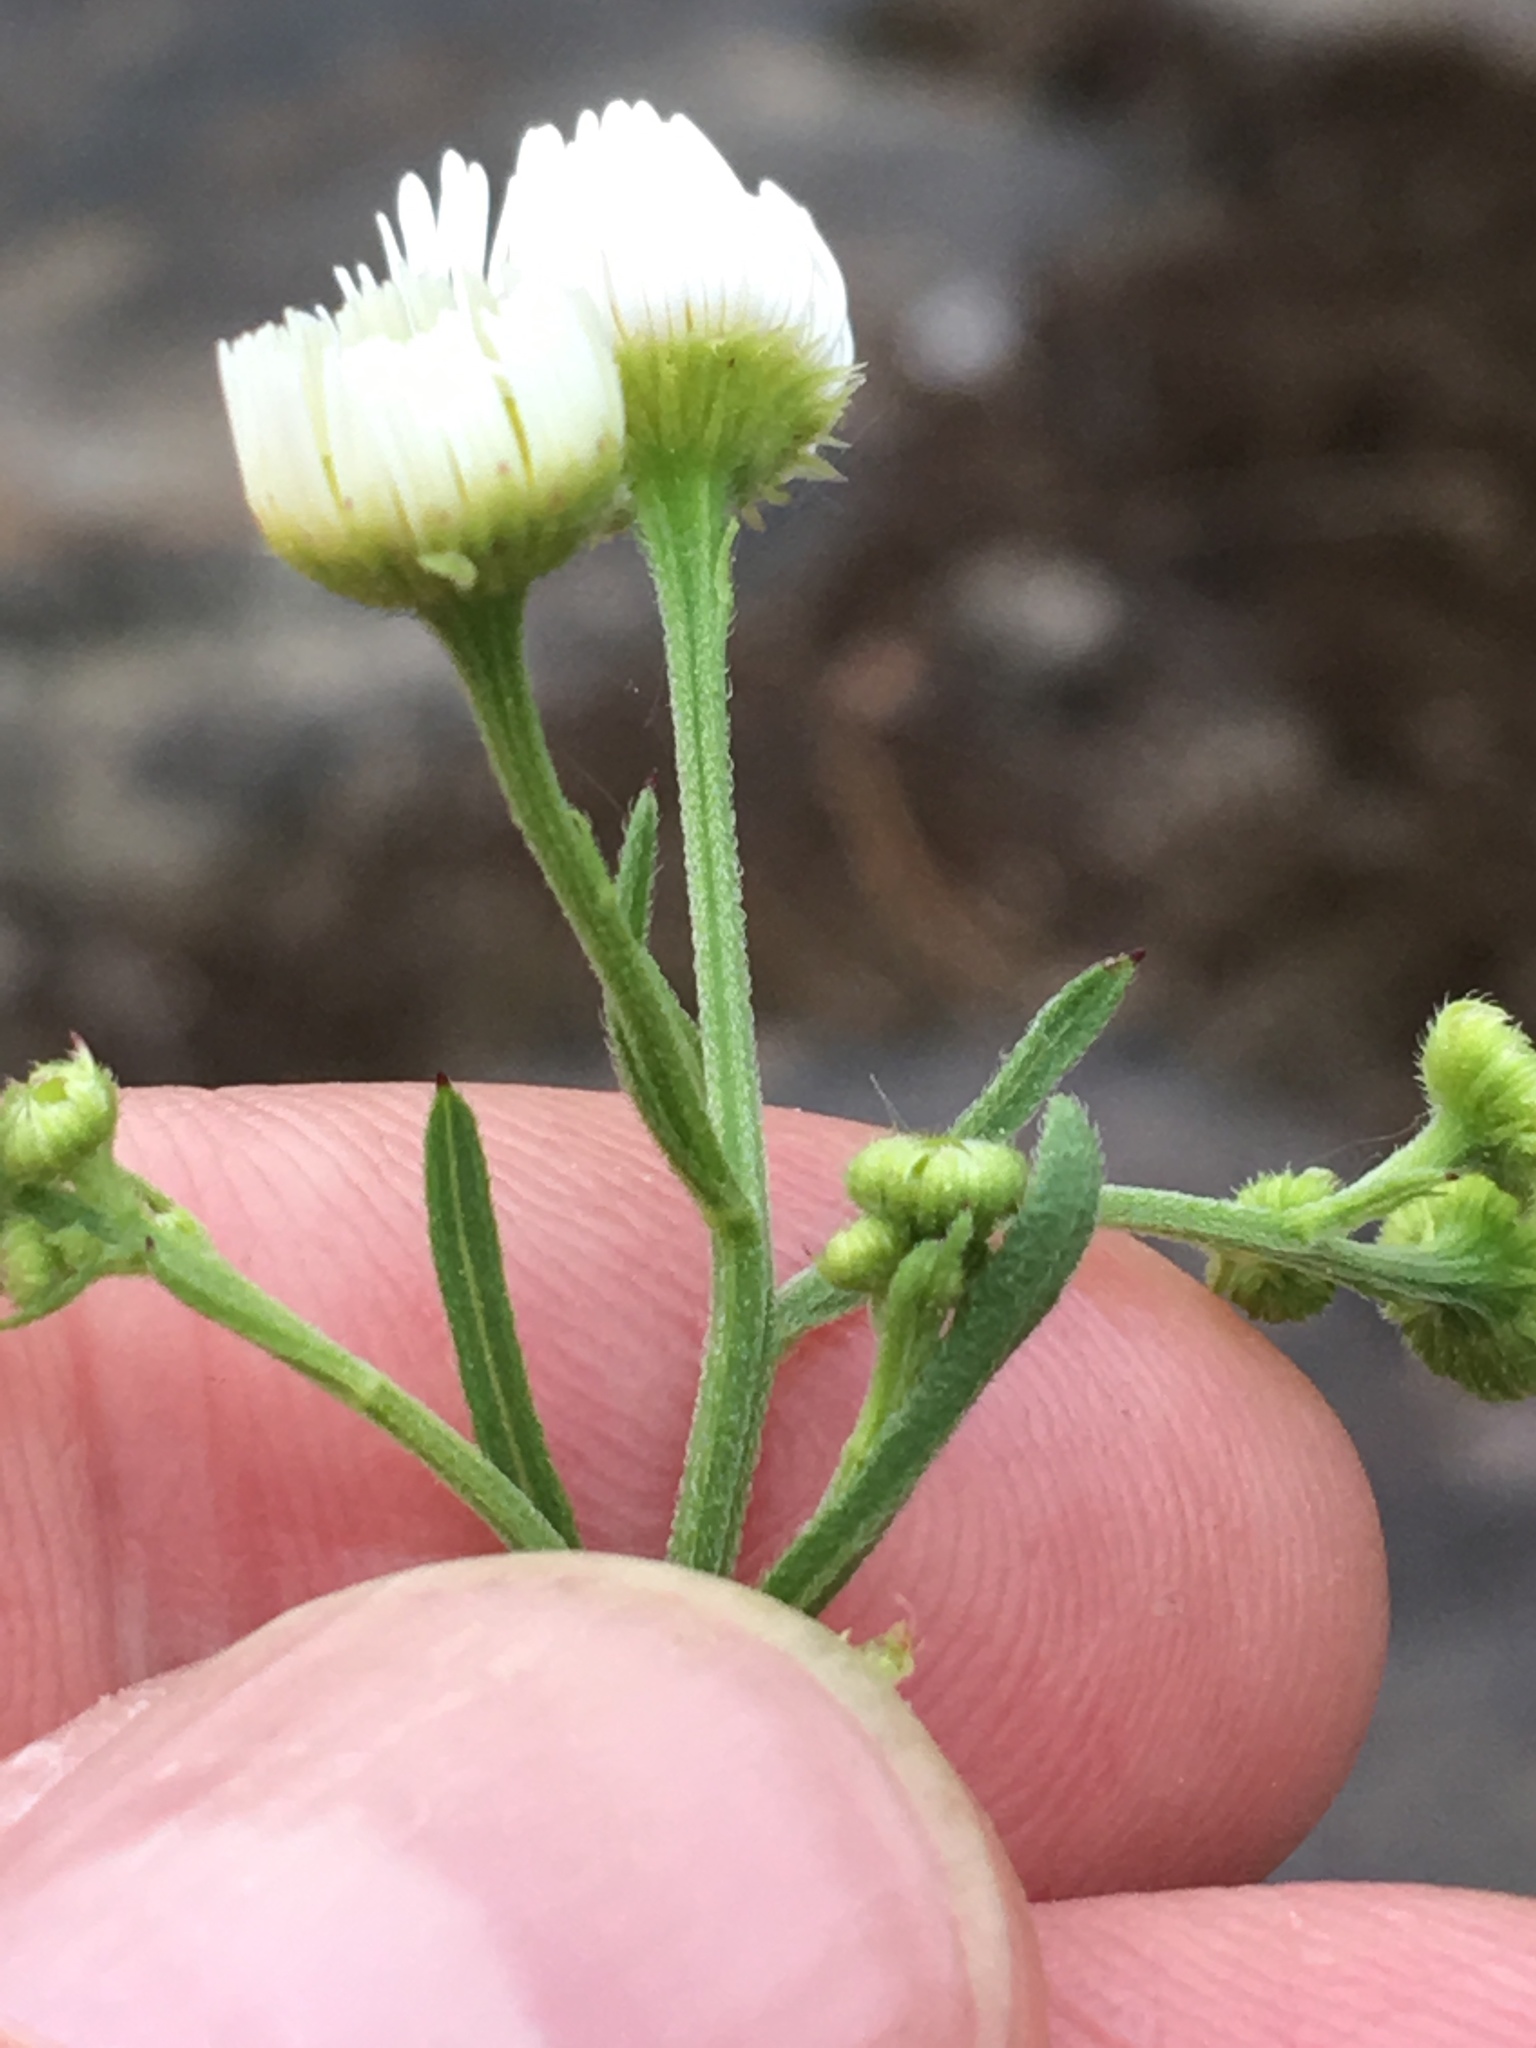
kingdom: Plantae
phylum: Tracheophyta
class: Magnoliopsida
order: Asterales
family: Asteraceae
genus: Erigeron
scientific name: Erigeron strigosus
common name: Common eastern fleabane
